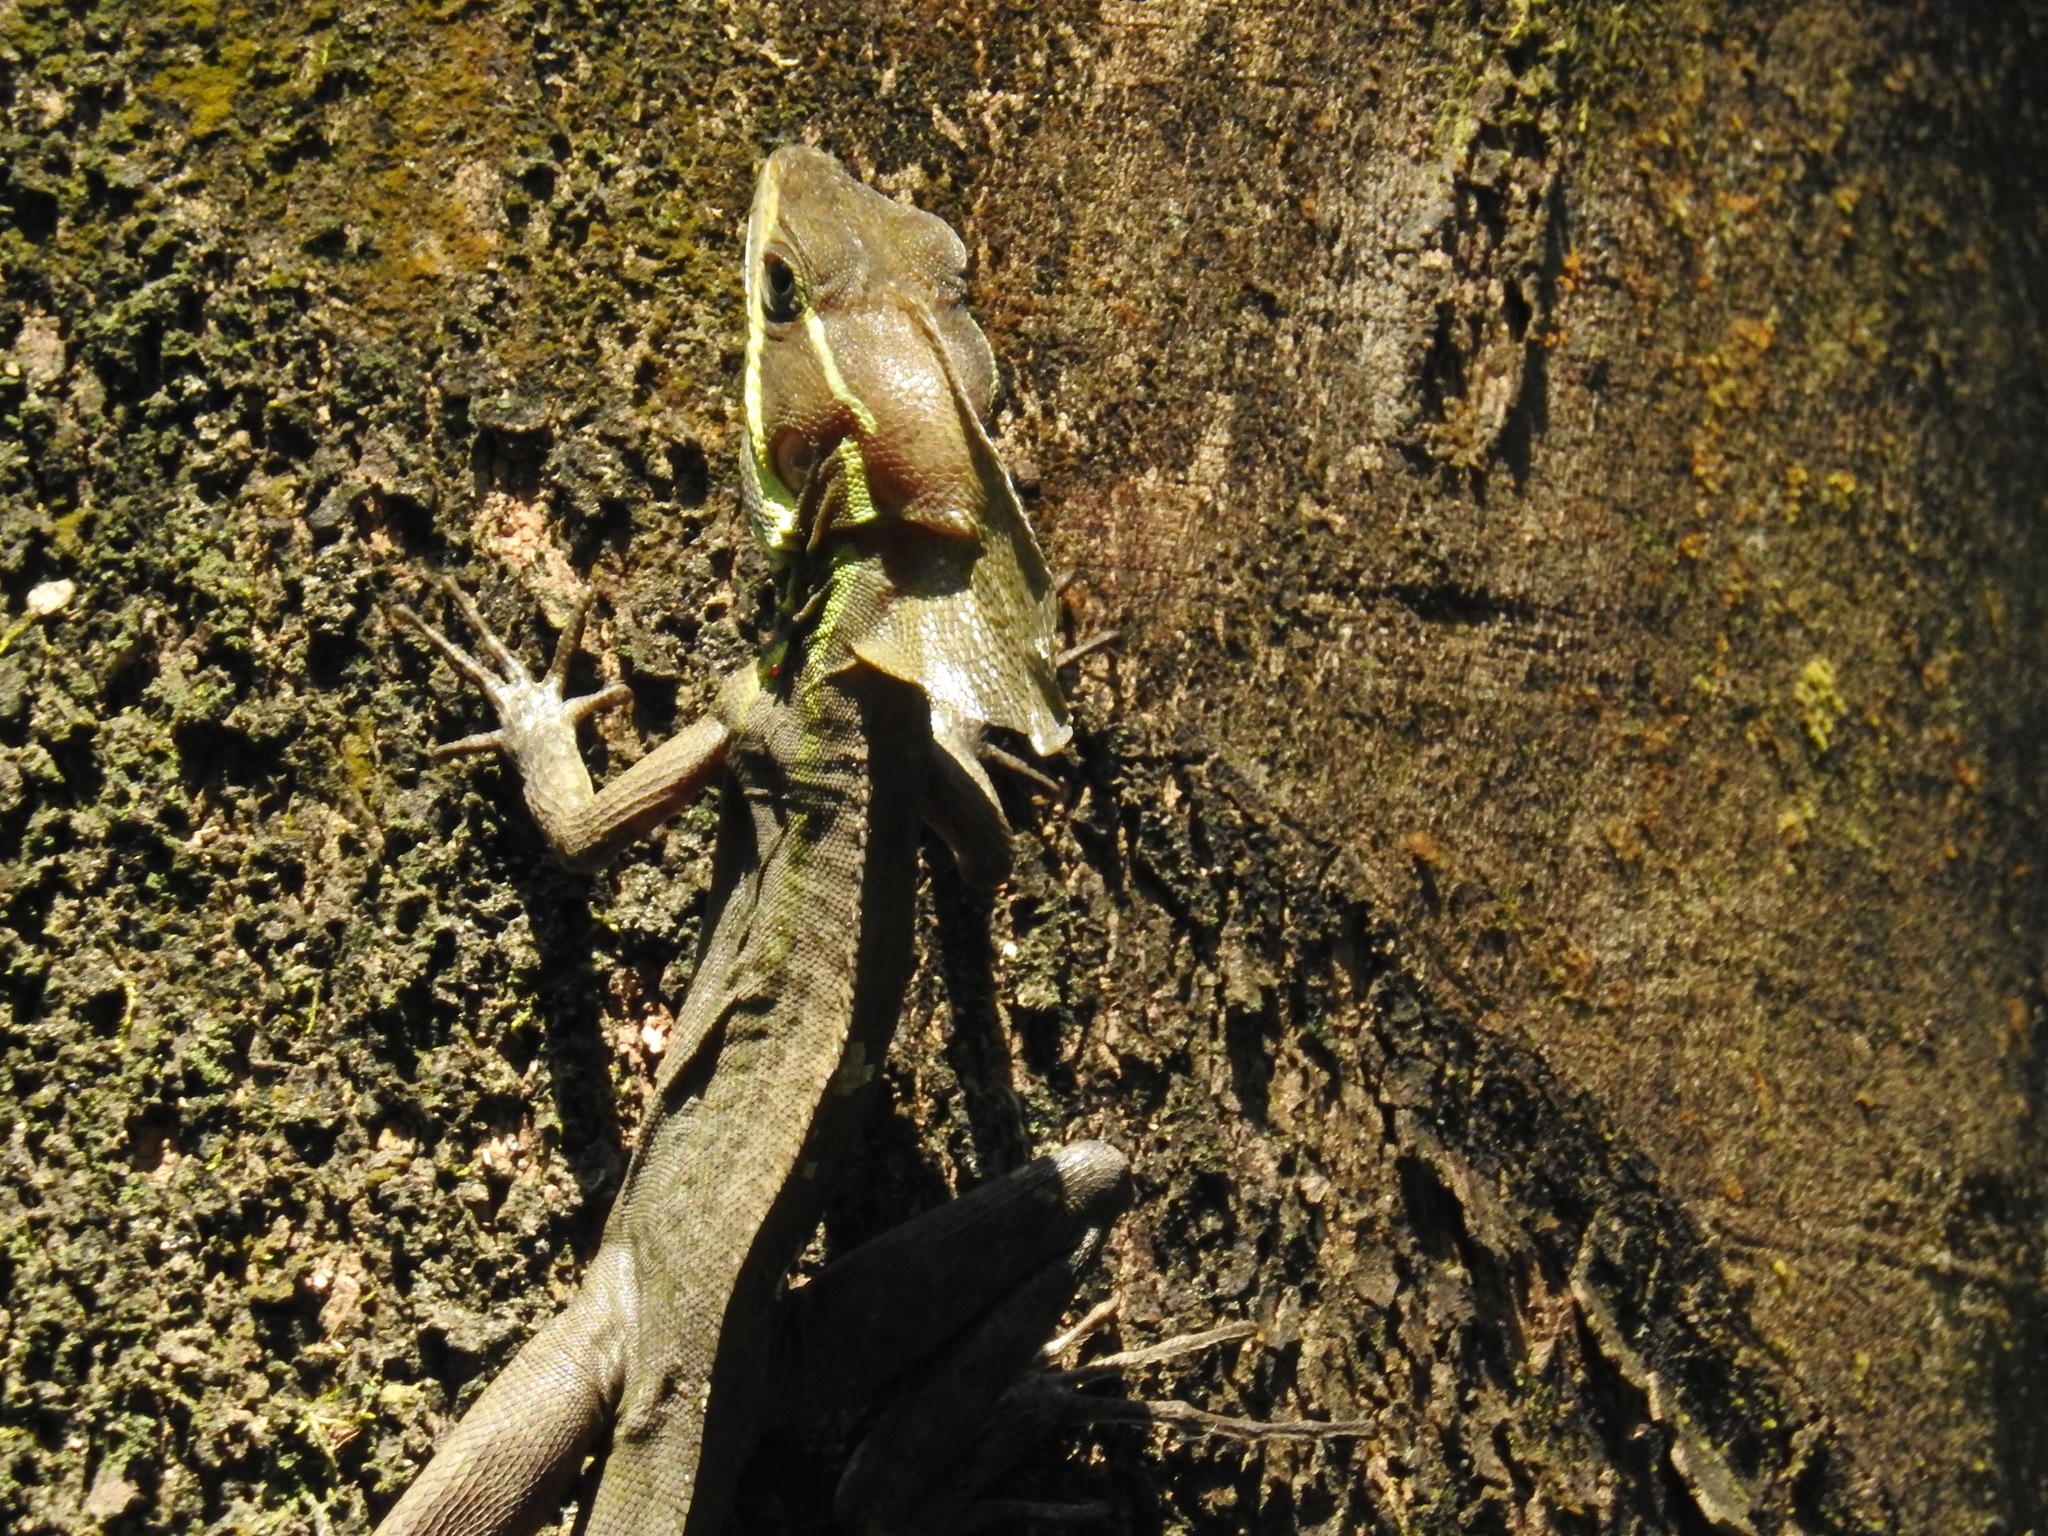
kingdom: Animalia
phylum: Chordata
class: Squamata
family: Corytophanidae
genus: Basiliscus
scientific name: Basiliscus vittatus
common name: Brown basilisk
